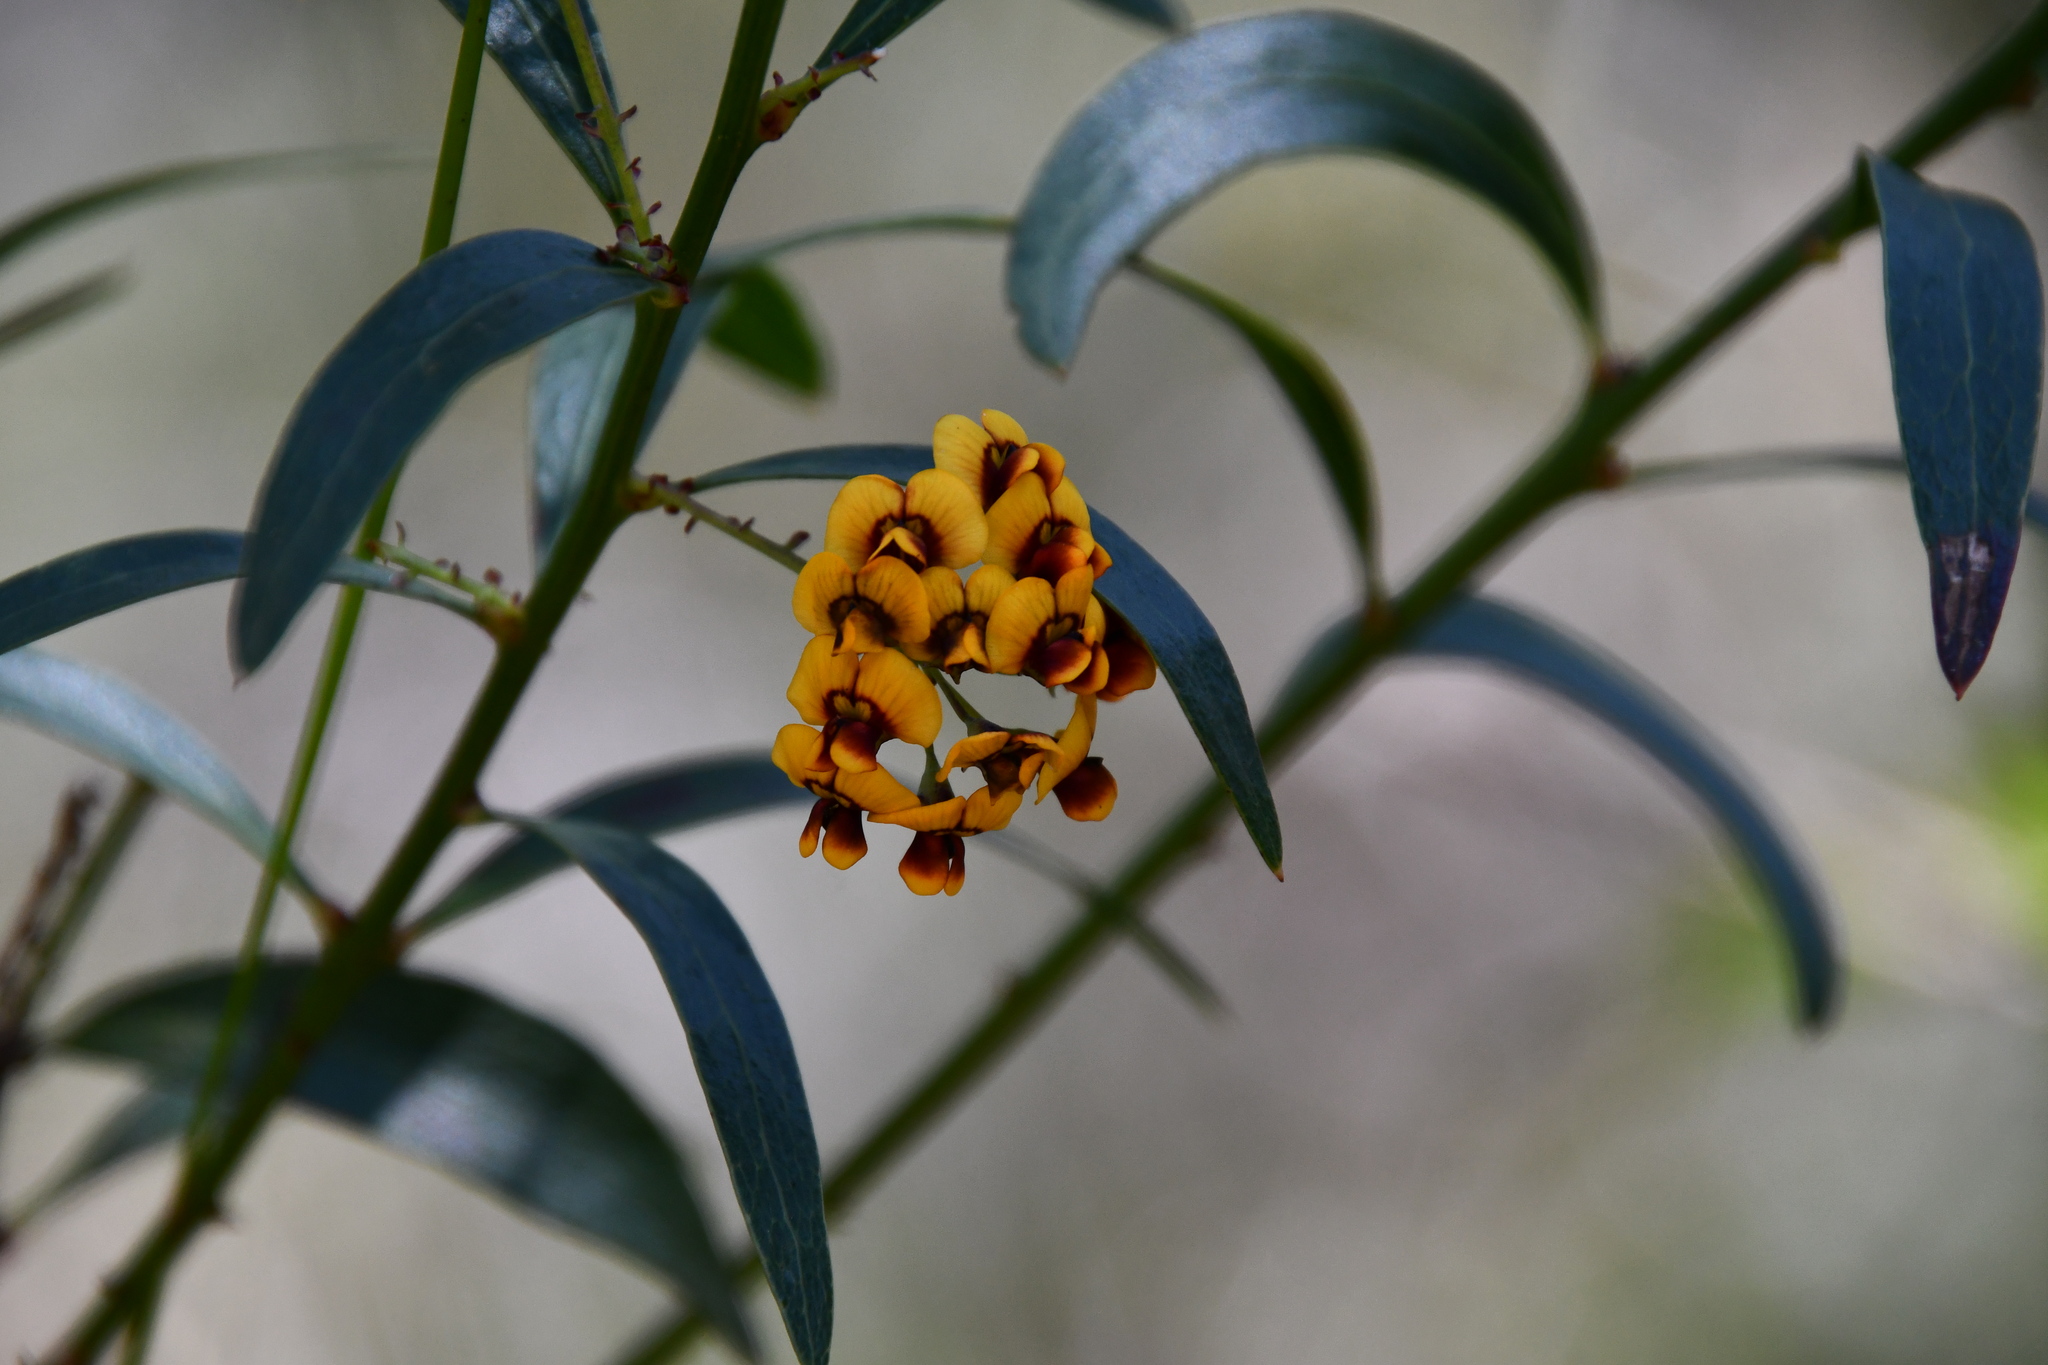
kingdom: Plantae
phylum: Tracheophyta
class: Magnoliopsida
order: Fabales
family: Fabaceae
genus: Daviesia
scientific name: Daviesia corymbosa
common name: Narrow-leaf bitter-pea
